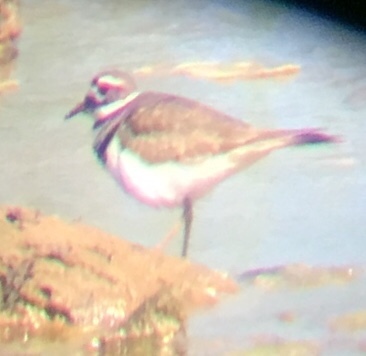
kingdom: Animalia
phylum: Chordata
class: Aves
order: Charadriiformes
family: Charadriidae
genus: Charadrius
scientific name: Charadrius vociferus
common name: Killdeer
